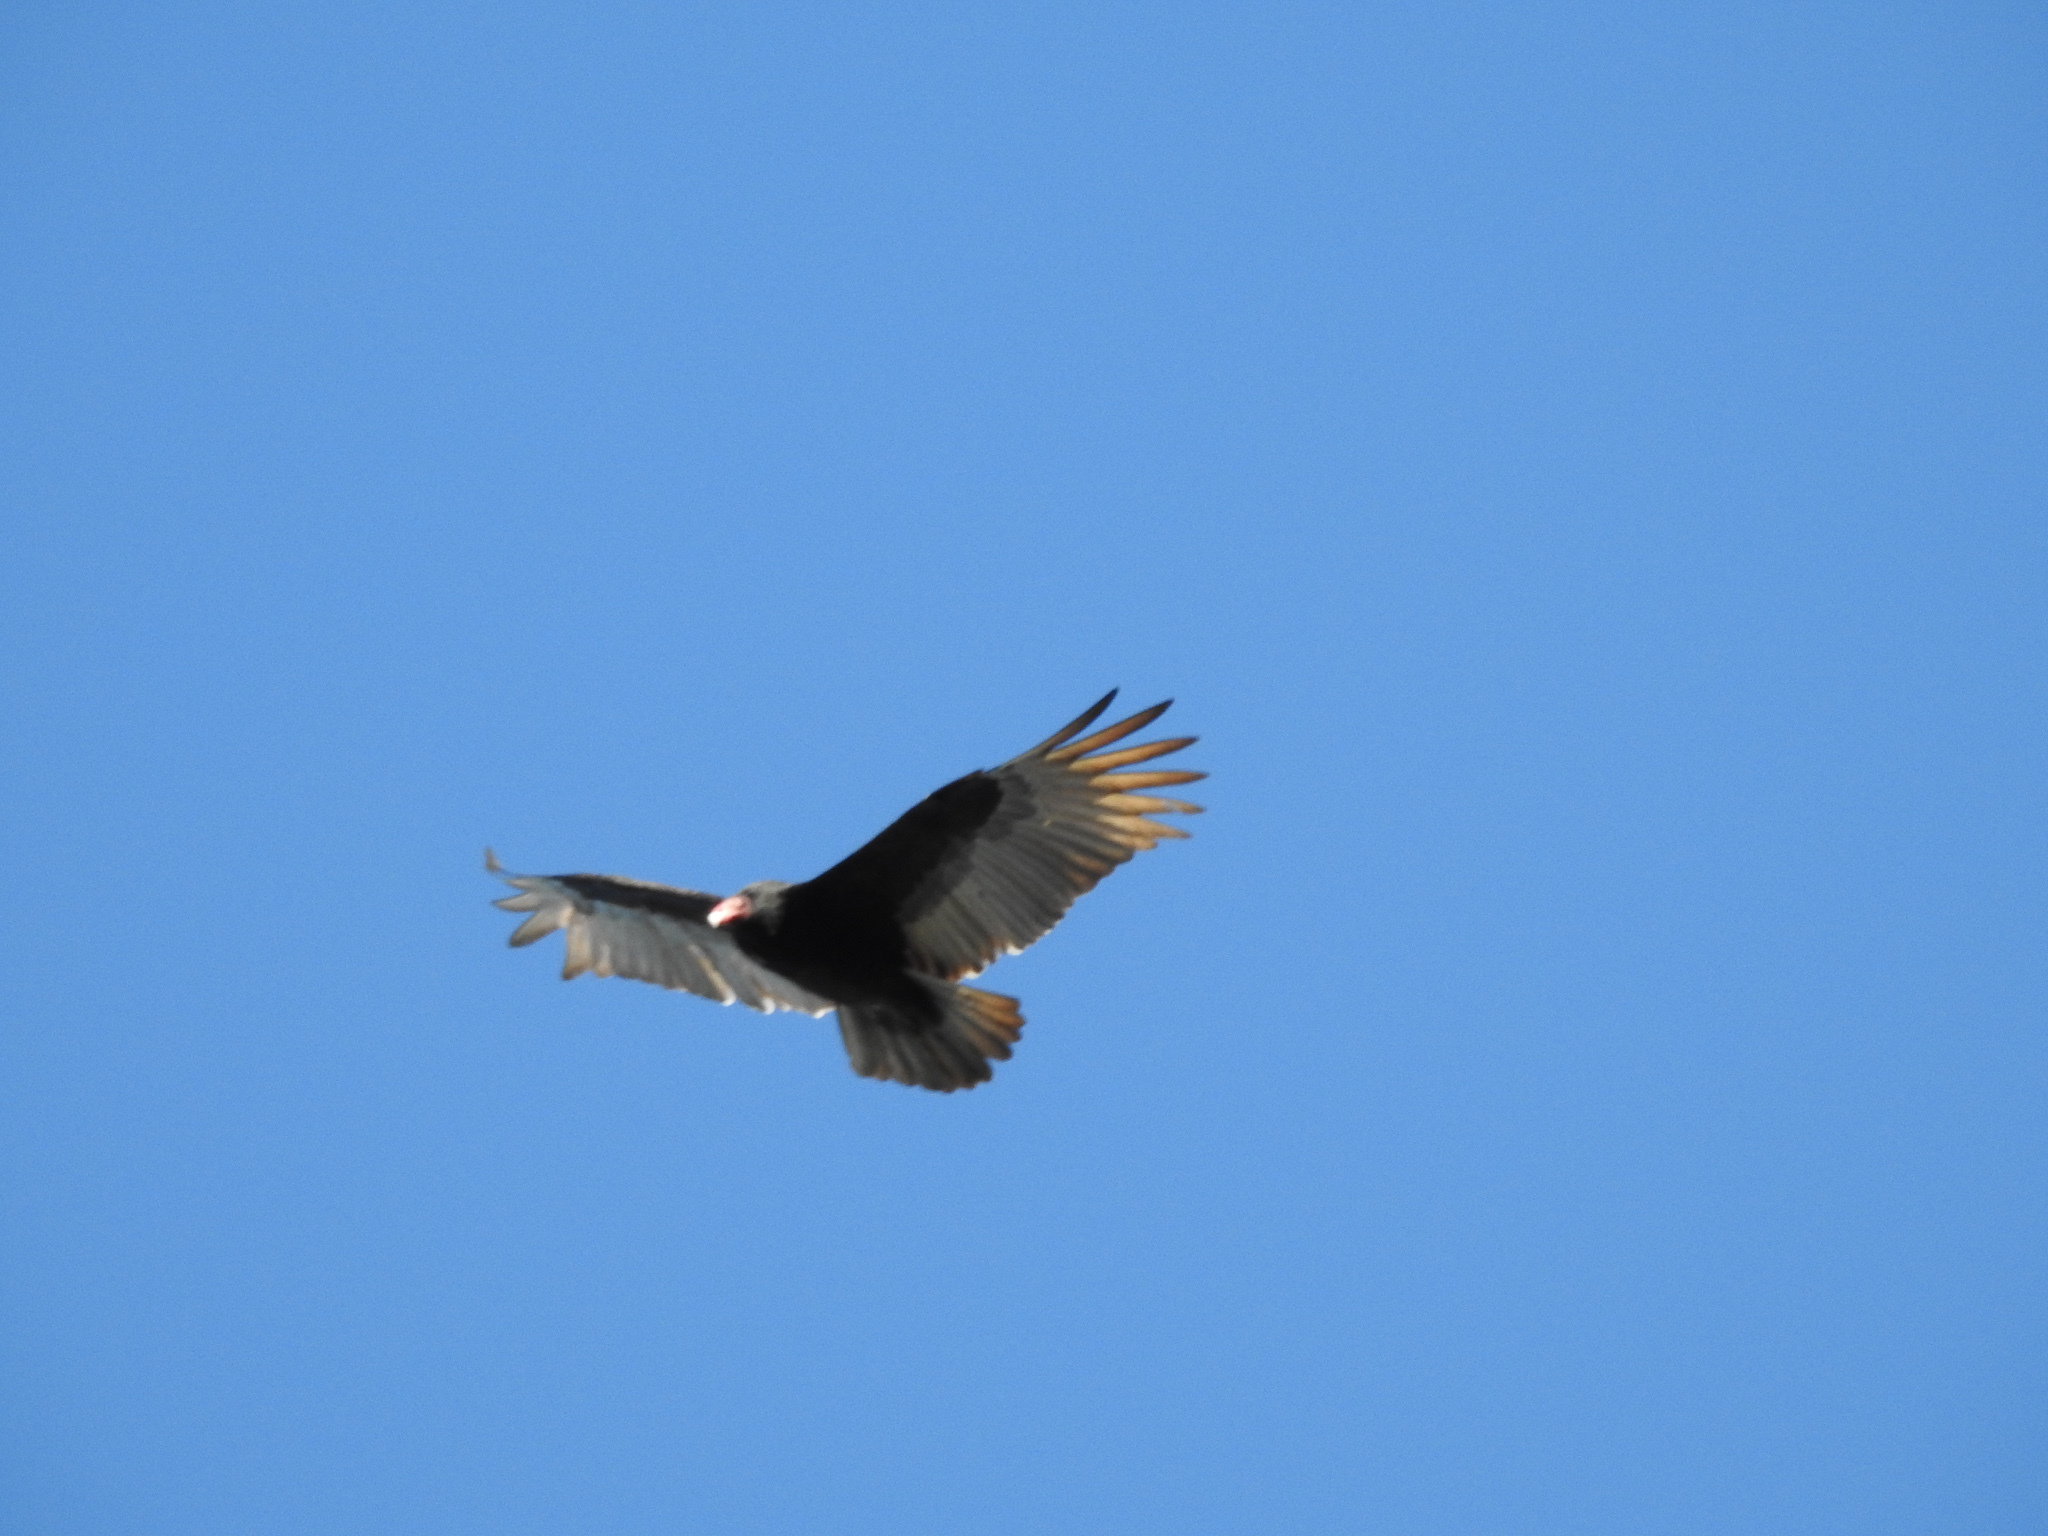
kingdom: Animalia
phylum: Chordata
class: Aves
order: Accipitriformes
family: Cathartidae
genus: Cathartes
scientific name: Cathartes aura
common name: Turkey vulture
